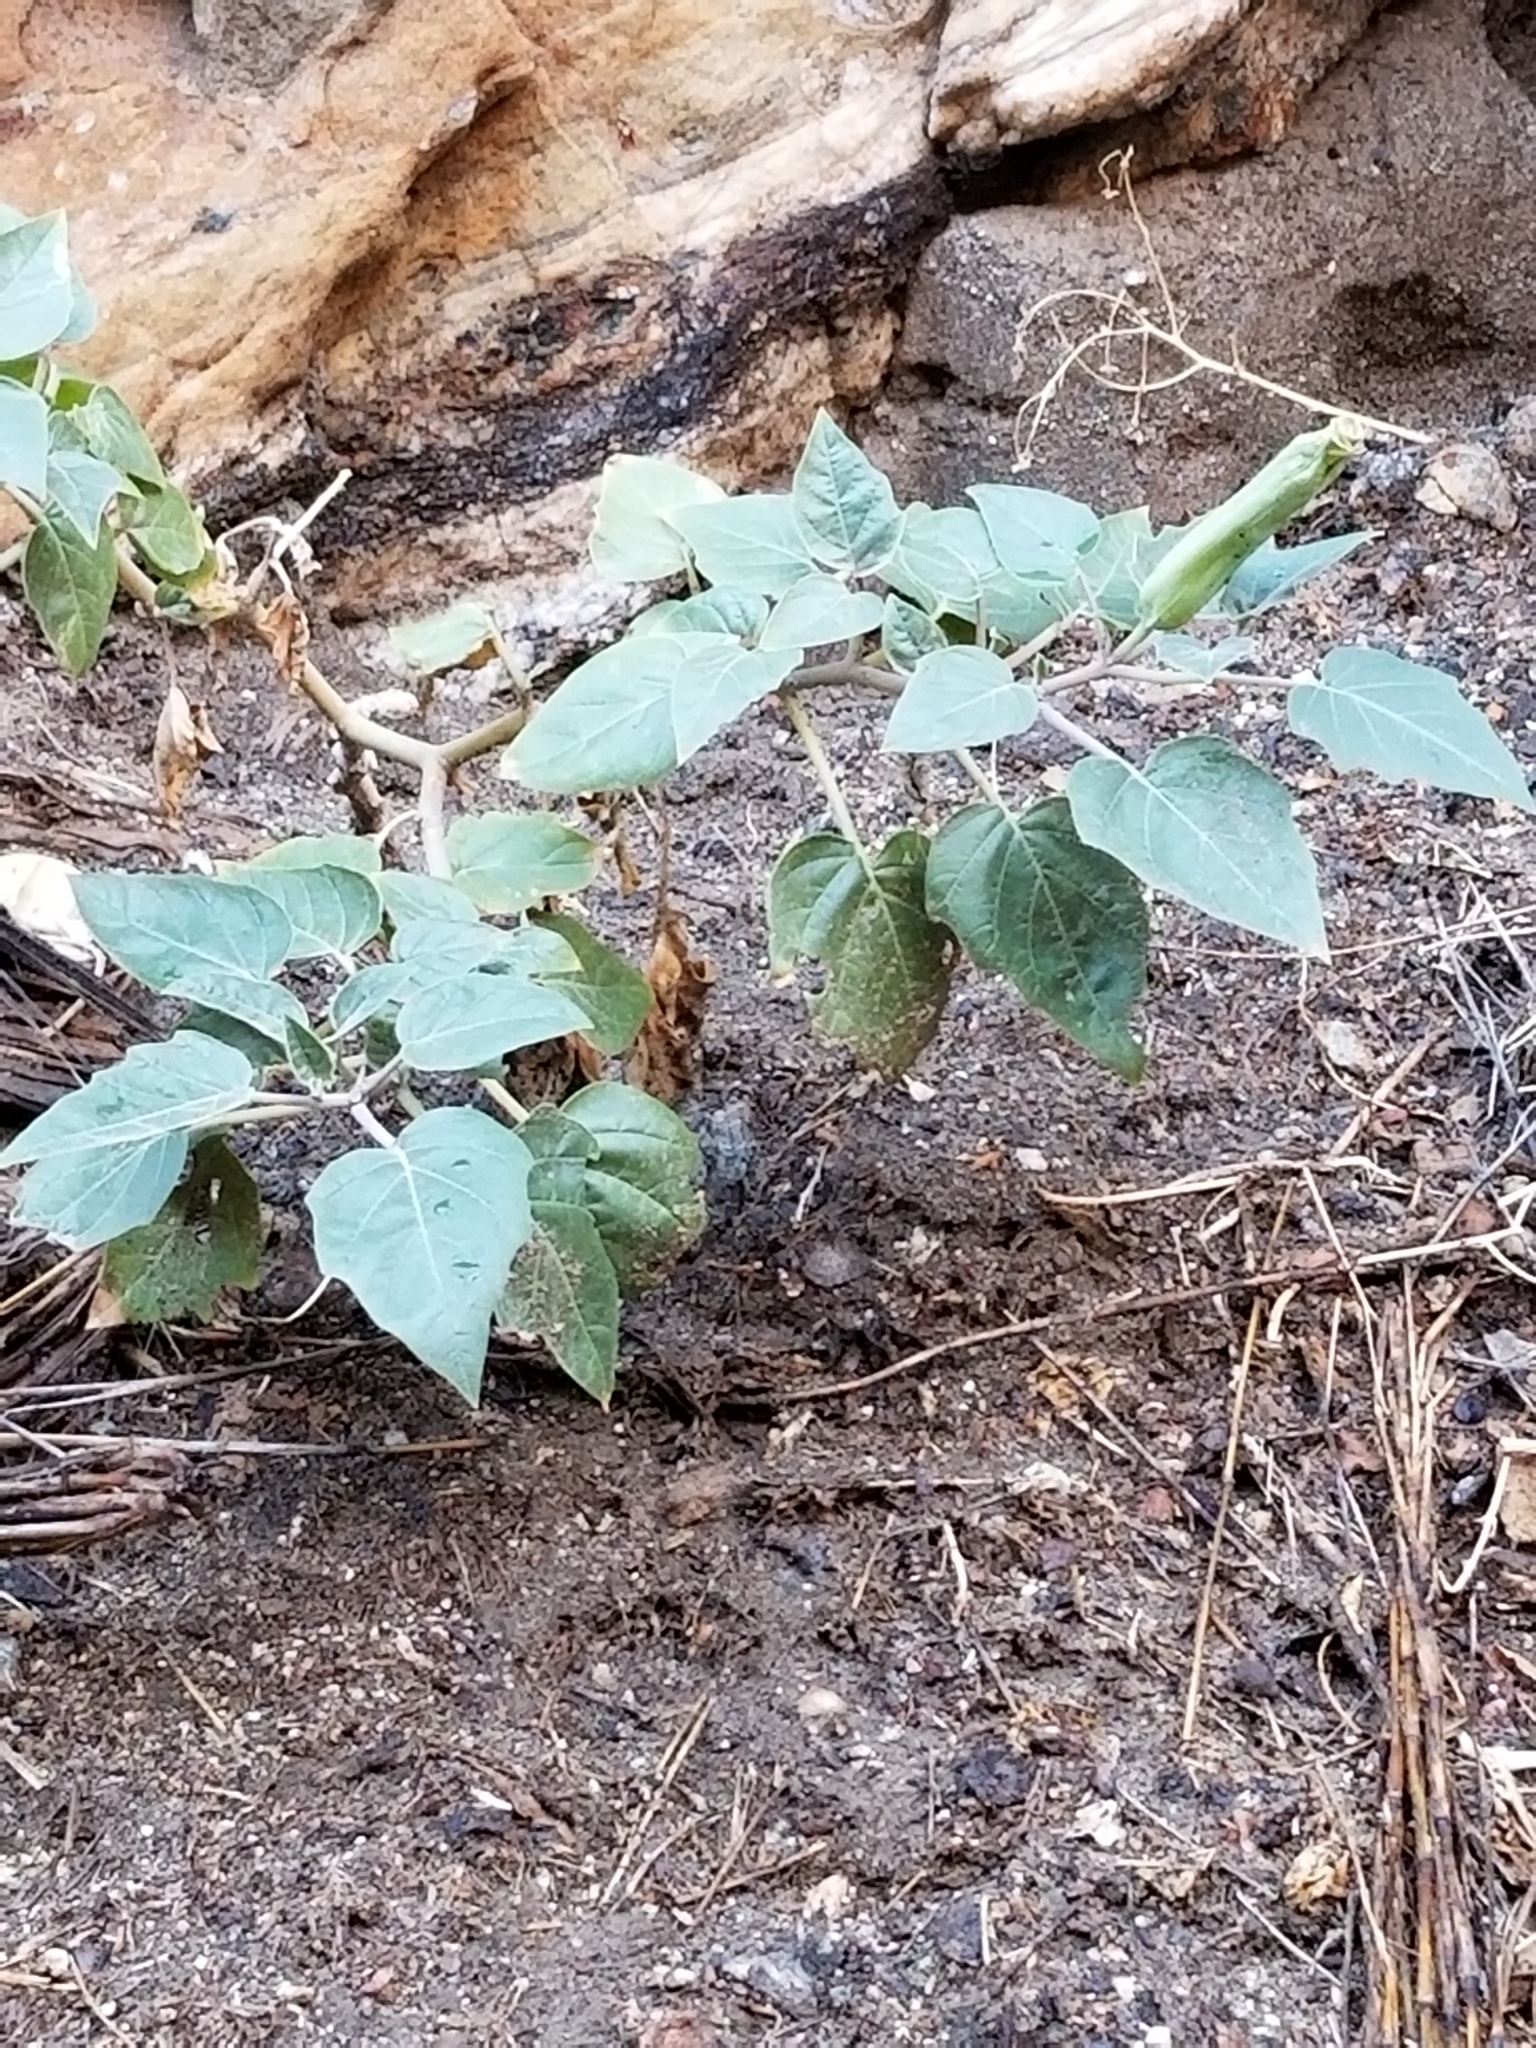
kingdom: Plantae
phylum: Tracheophyta
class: Magnoliopsida
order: Solanales
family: Solanaceae
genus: Datura
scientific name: Datura wrightii
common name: Sacred thorn-apple
